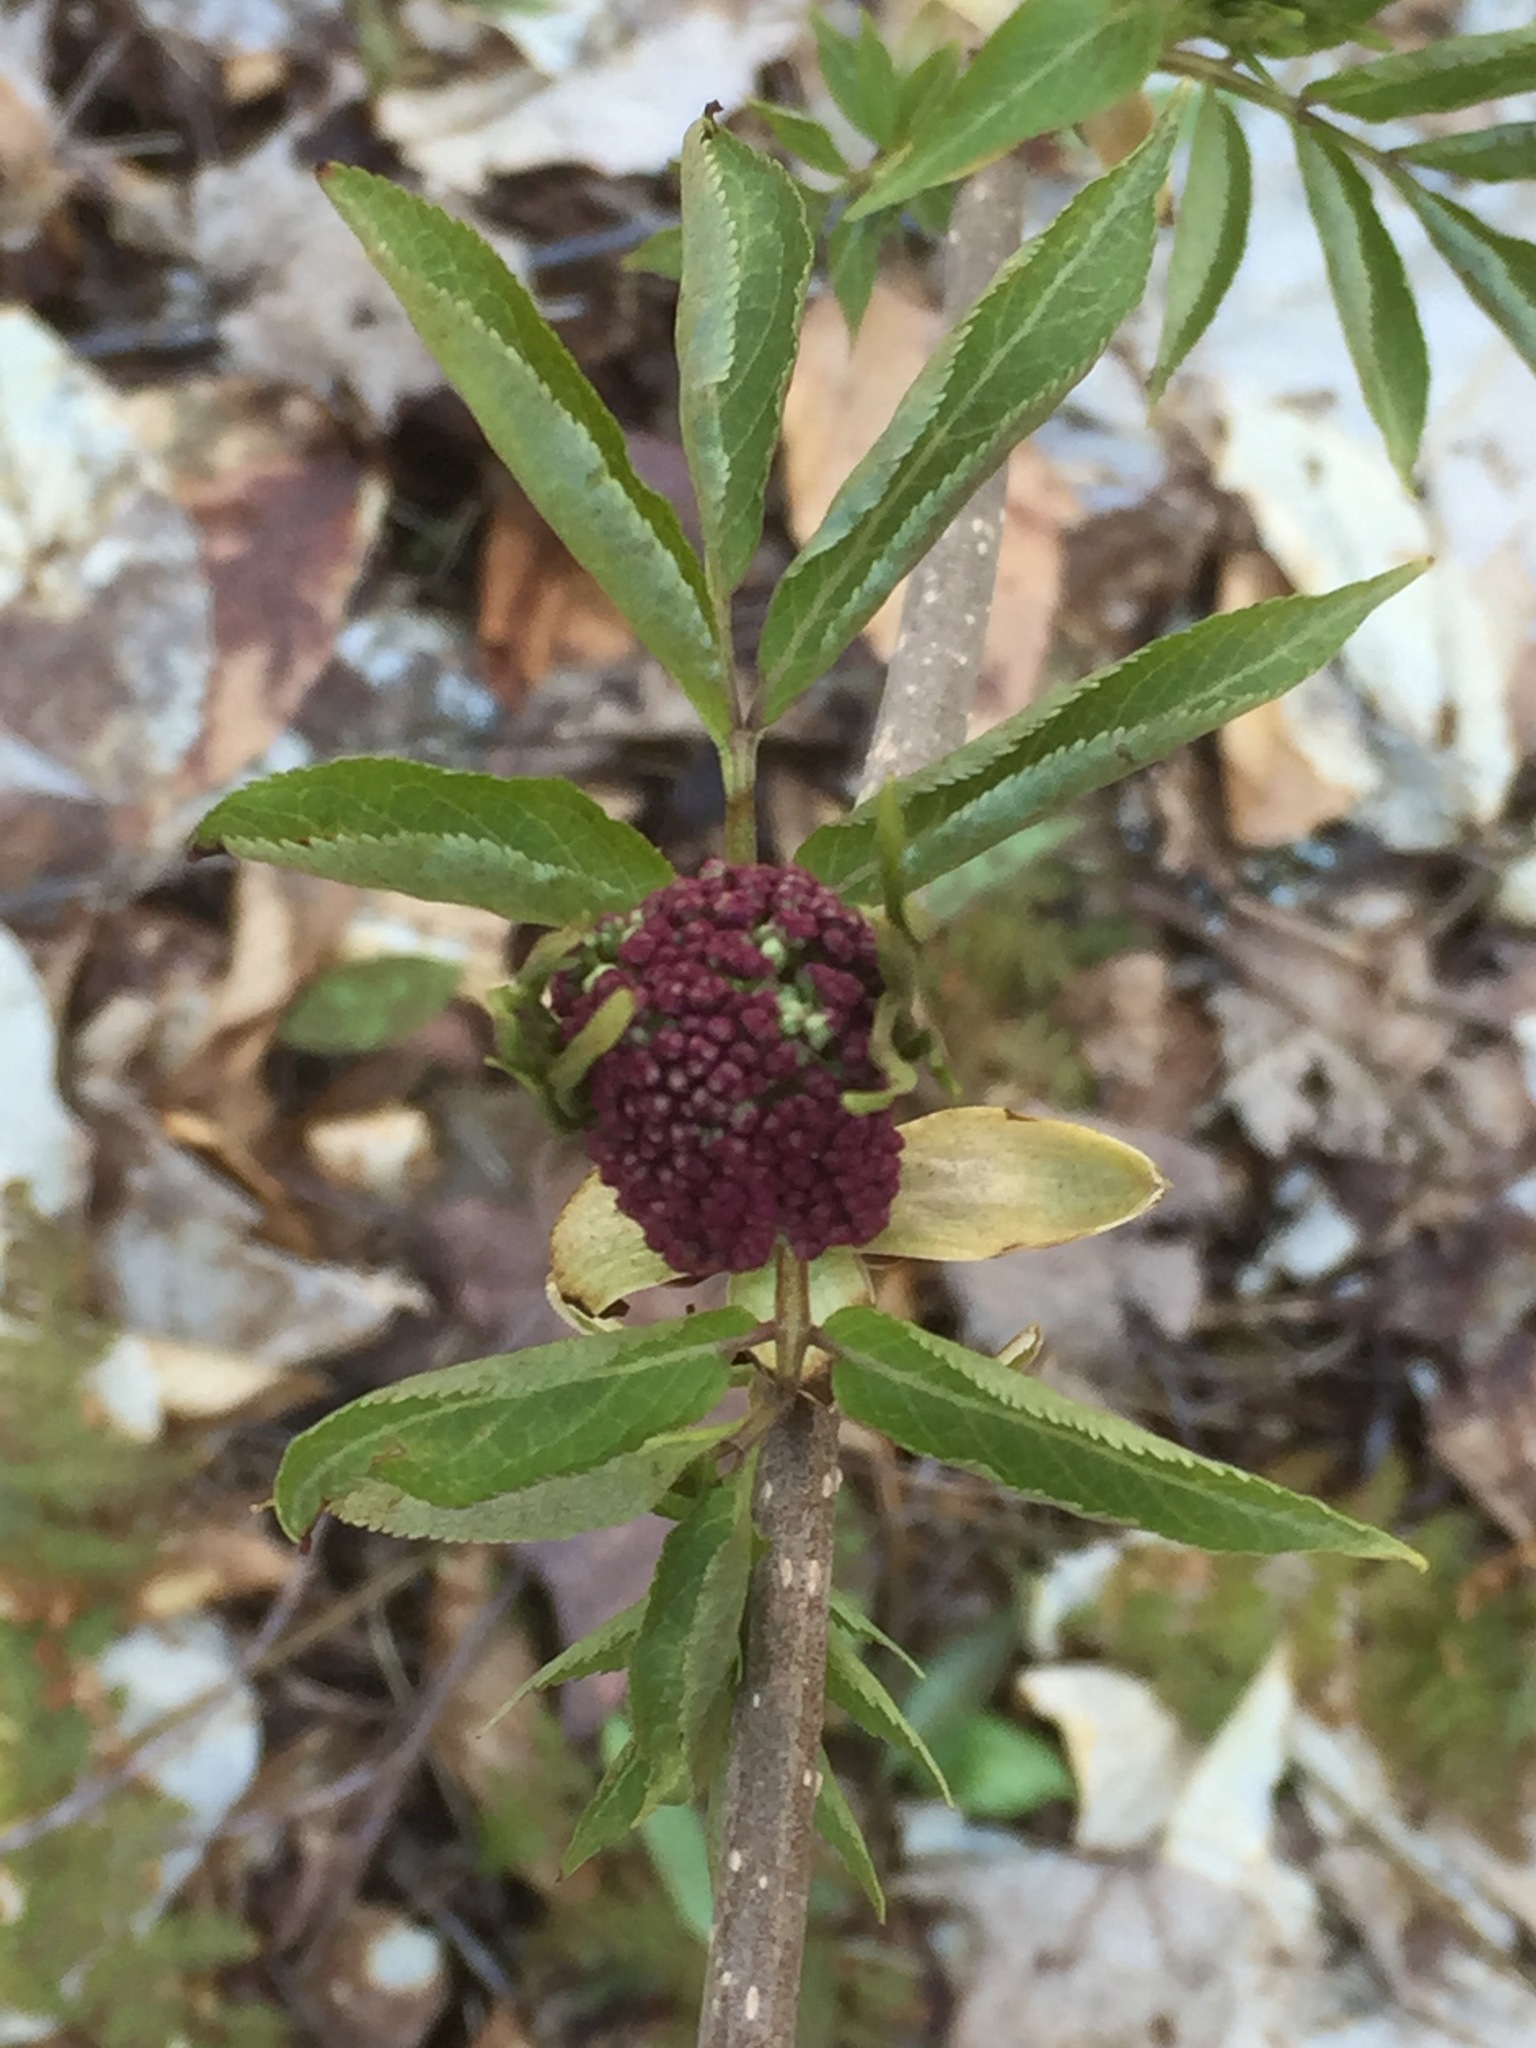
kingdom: Plantae
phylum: Tracheophyta
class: Magnoliopsida
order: Dipsacales
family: Viburnaceae
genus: Sambucus
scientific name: Sambucus racemosa
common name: Red-berried elder
